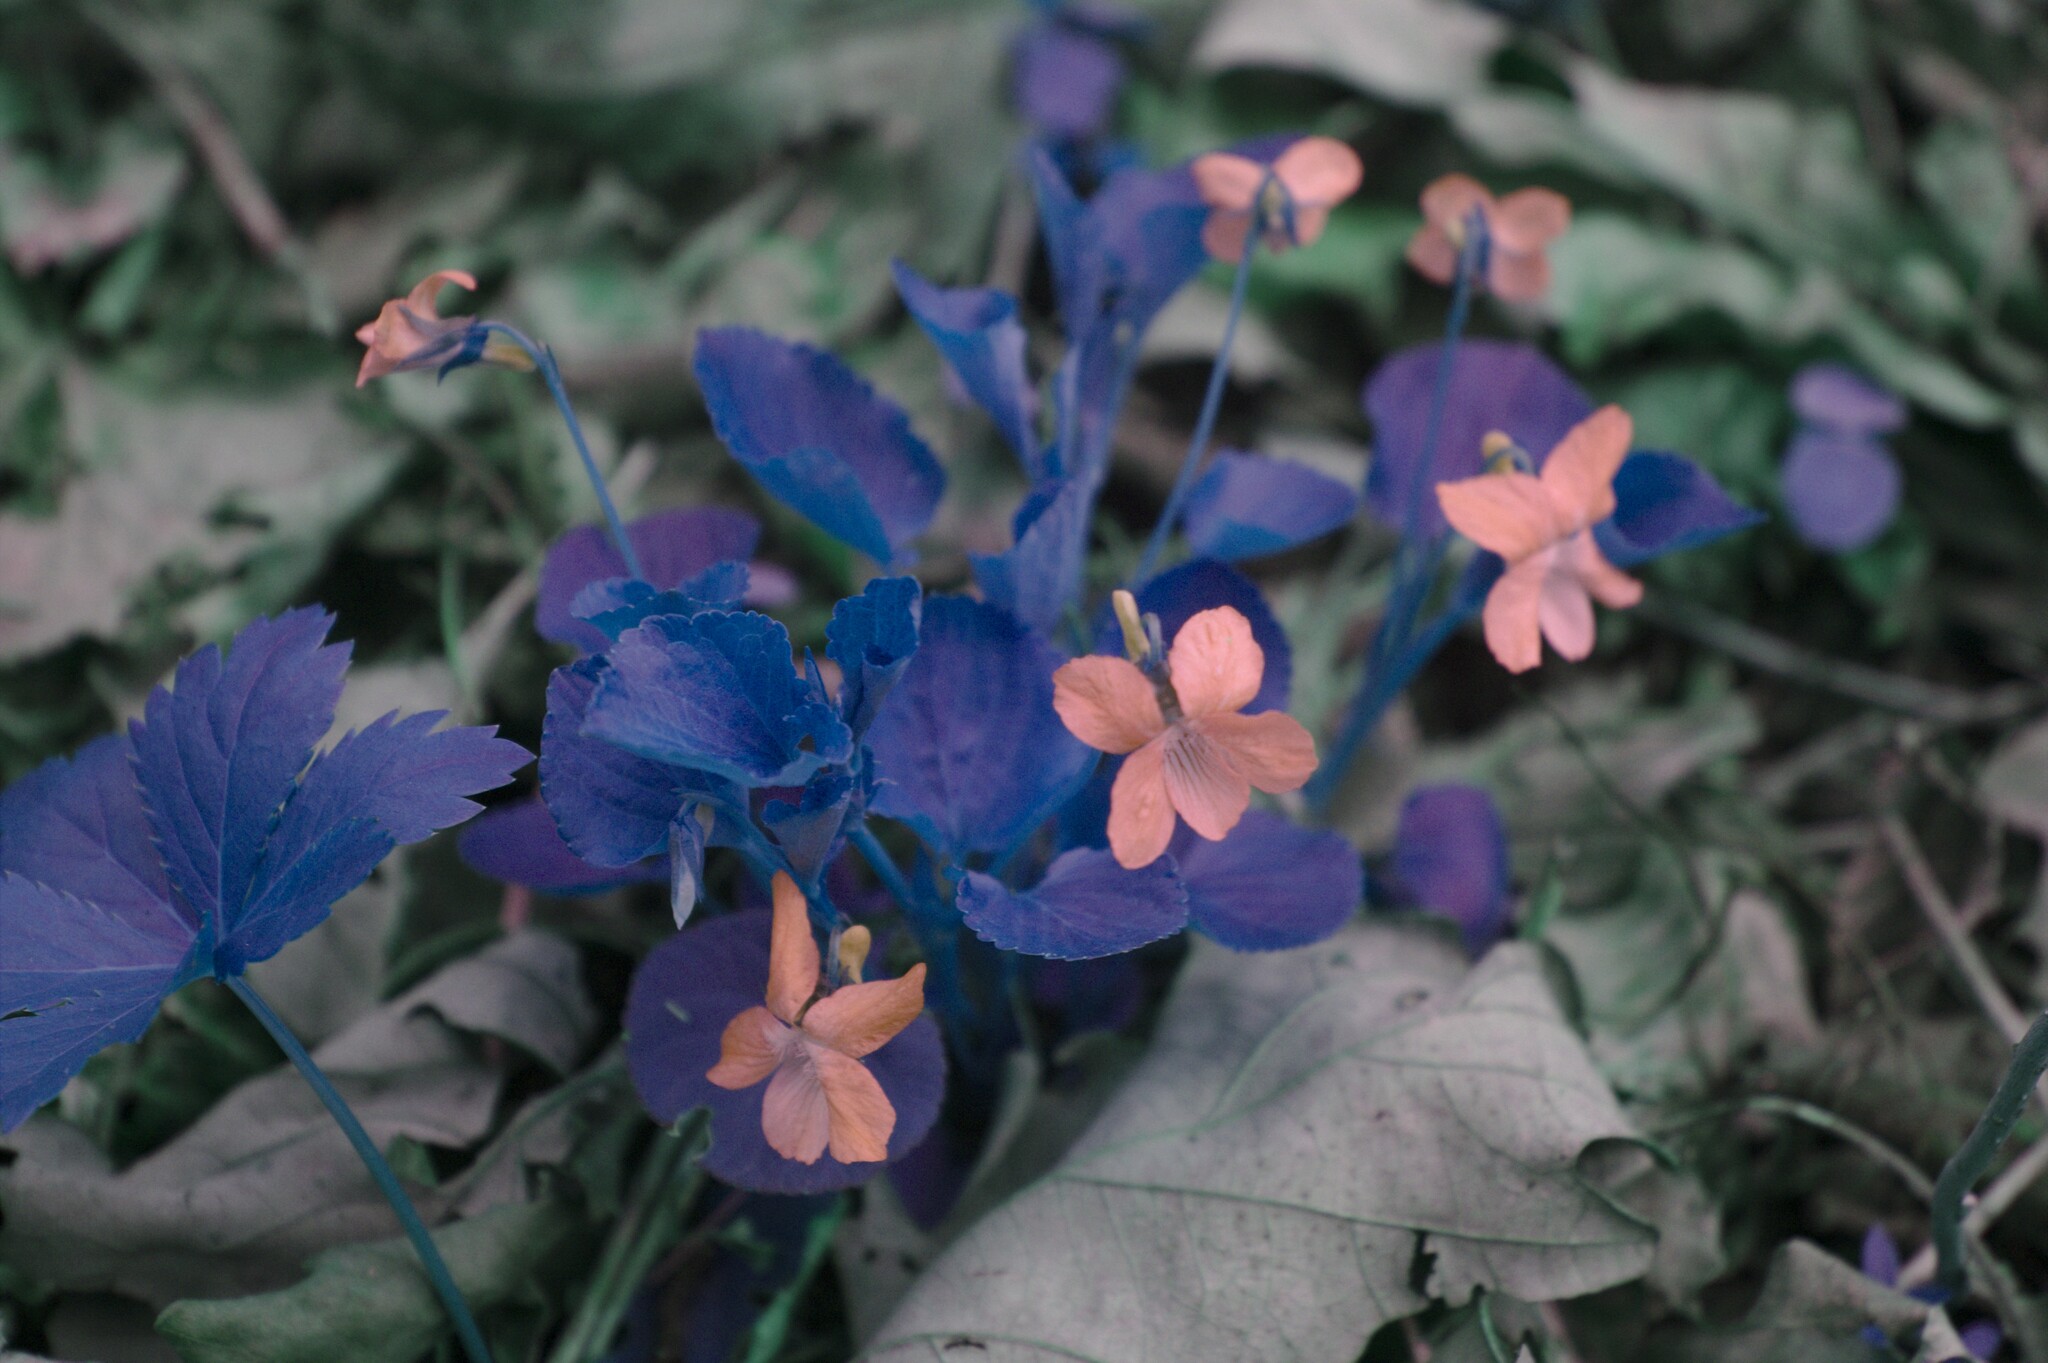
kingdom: Plantae
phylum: Tracheophyta
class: Magnoliopsida
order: Malpighiales
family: Violaceae
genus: Viola
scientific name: Viola labradorica
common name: Labrador violet
